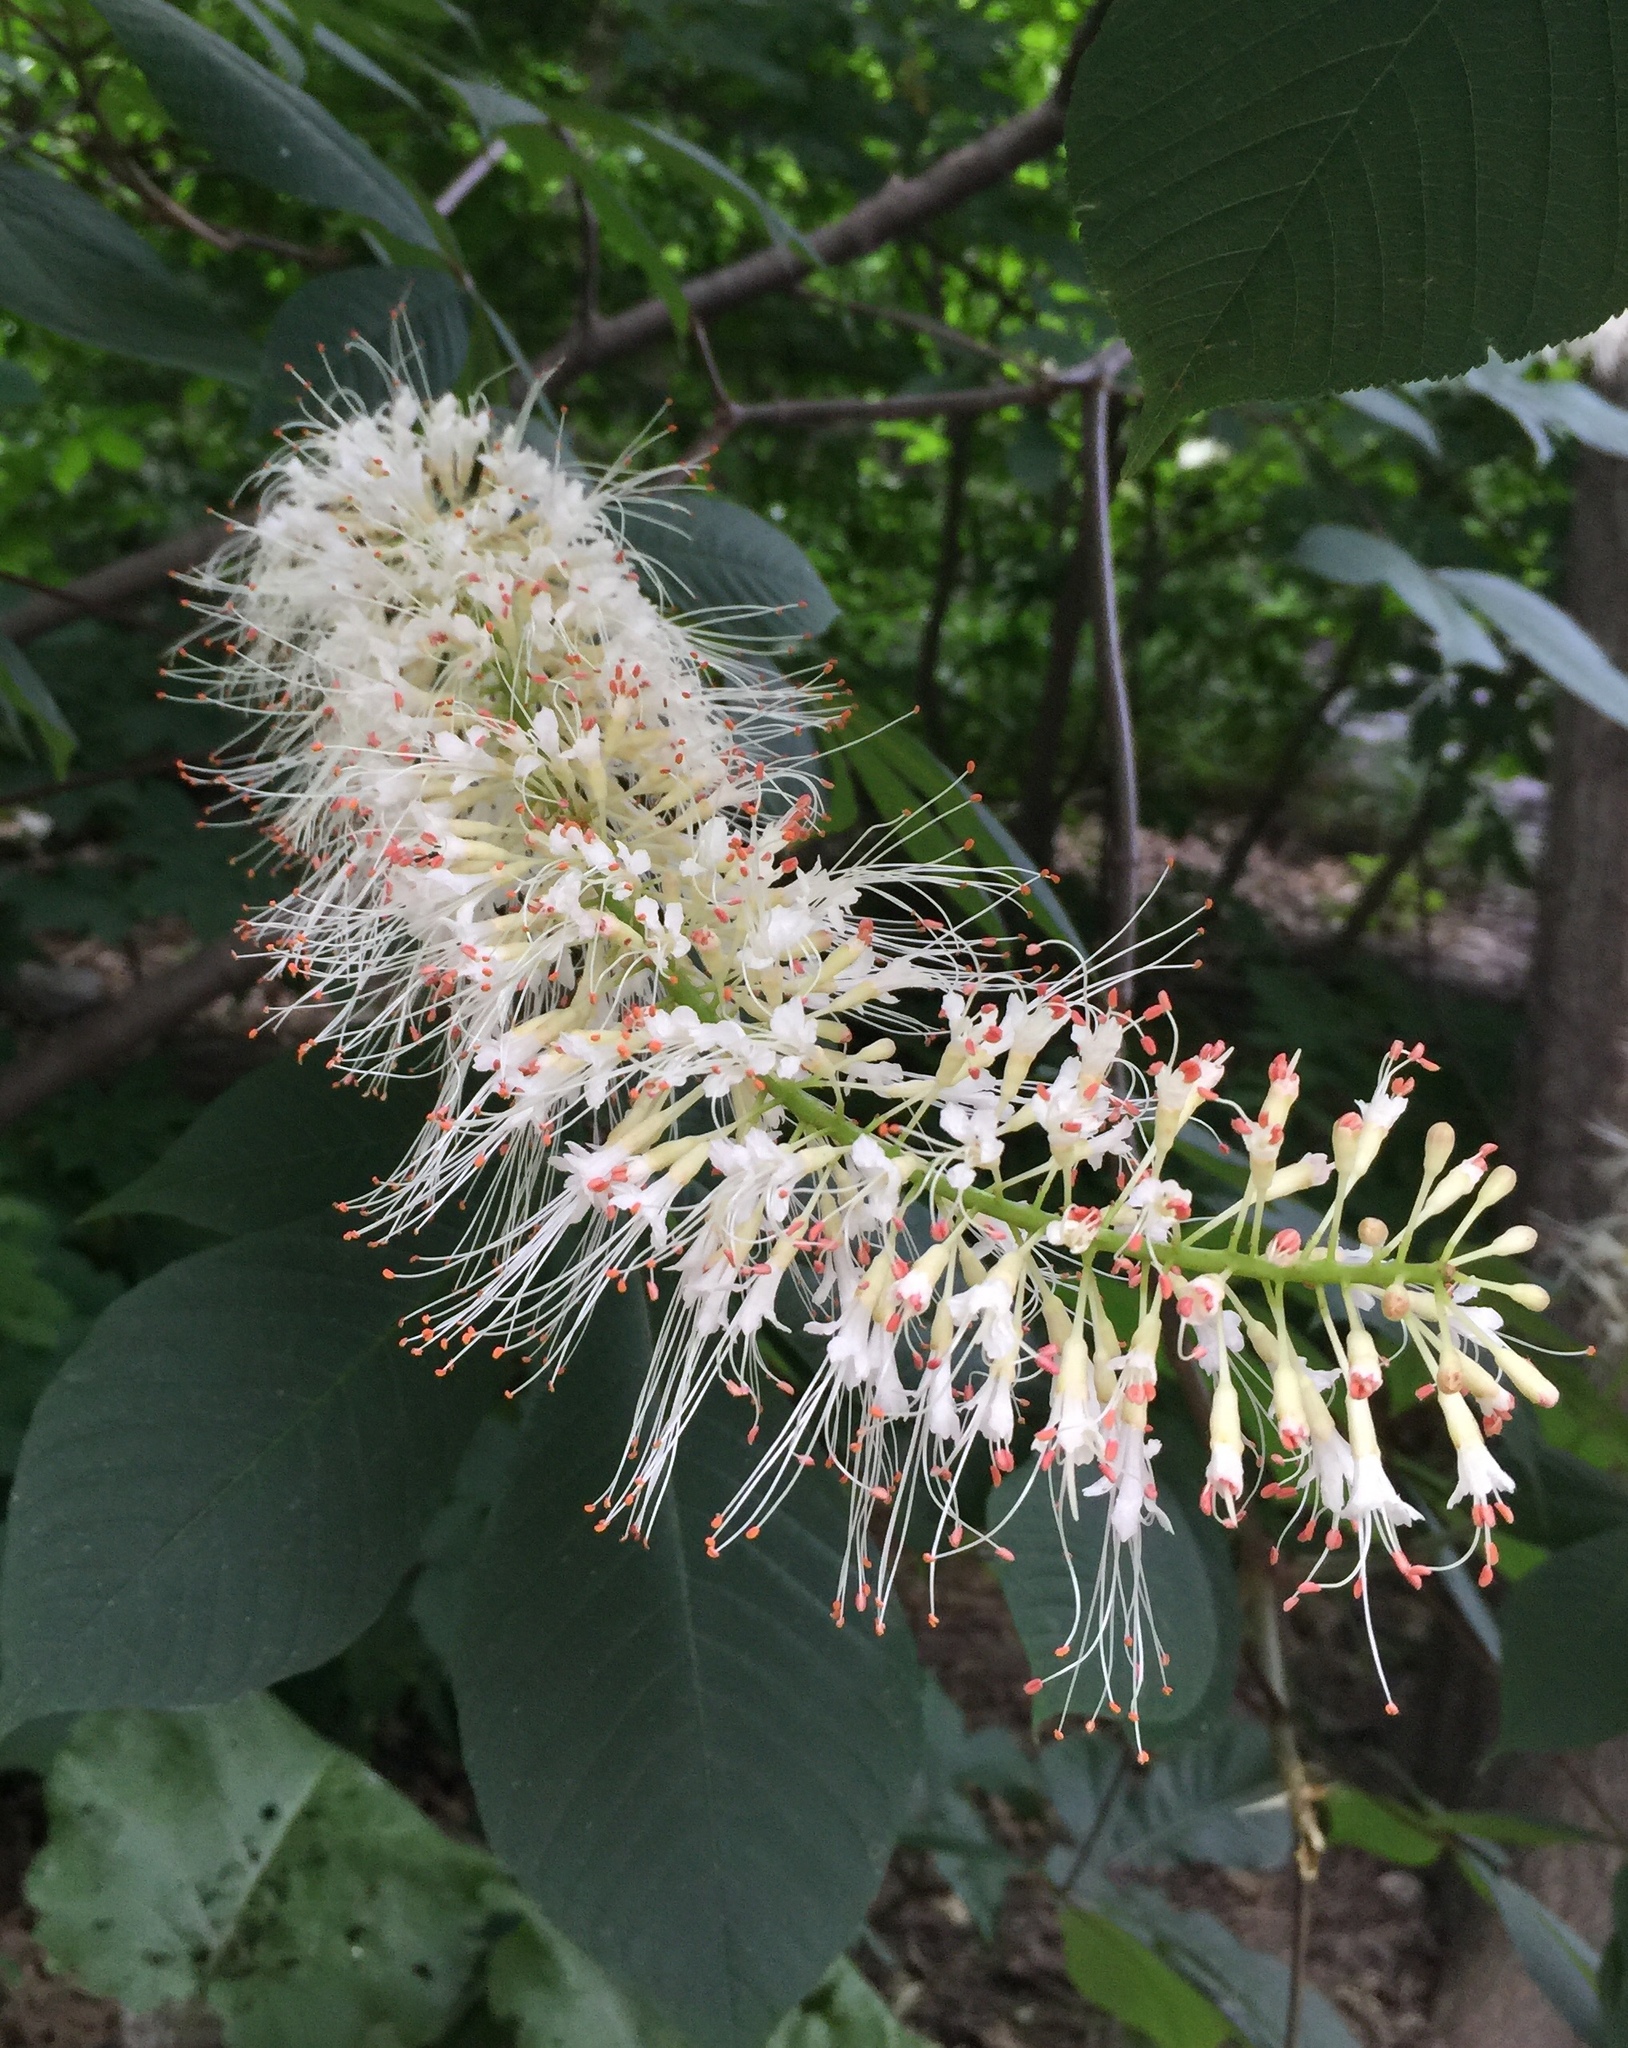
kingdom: Plantae
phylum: Tracheophyta
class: Magnoliopsida
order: Sapindales
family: Sapindaceae
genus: Aesculus
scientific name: Aesculus parviflora
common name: Bottlebrush buckeye
